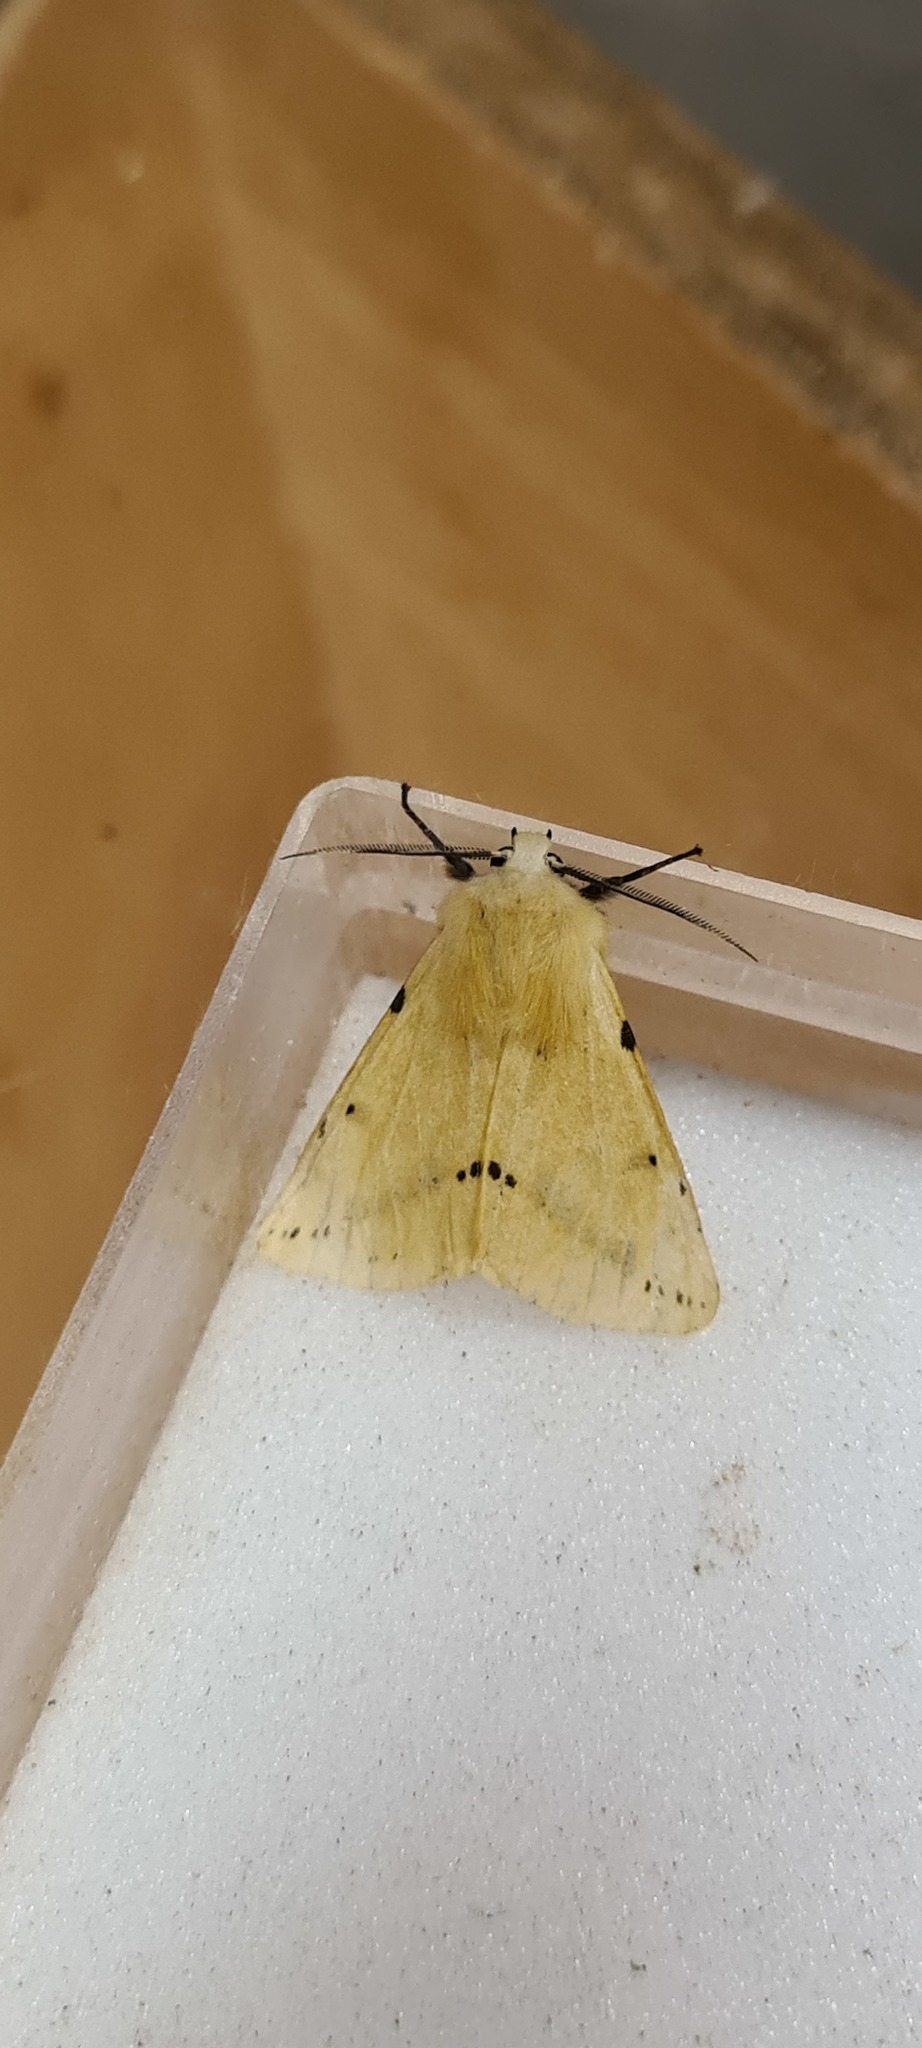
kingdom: Animalia
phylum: Arthropoda
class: Insecta
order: Lepidoptera
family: Erebidae
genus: Spilarctia
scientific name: Spilarctia lutea
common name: Buff ermine
